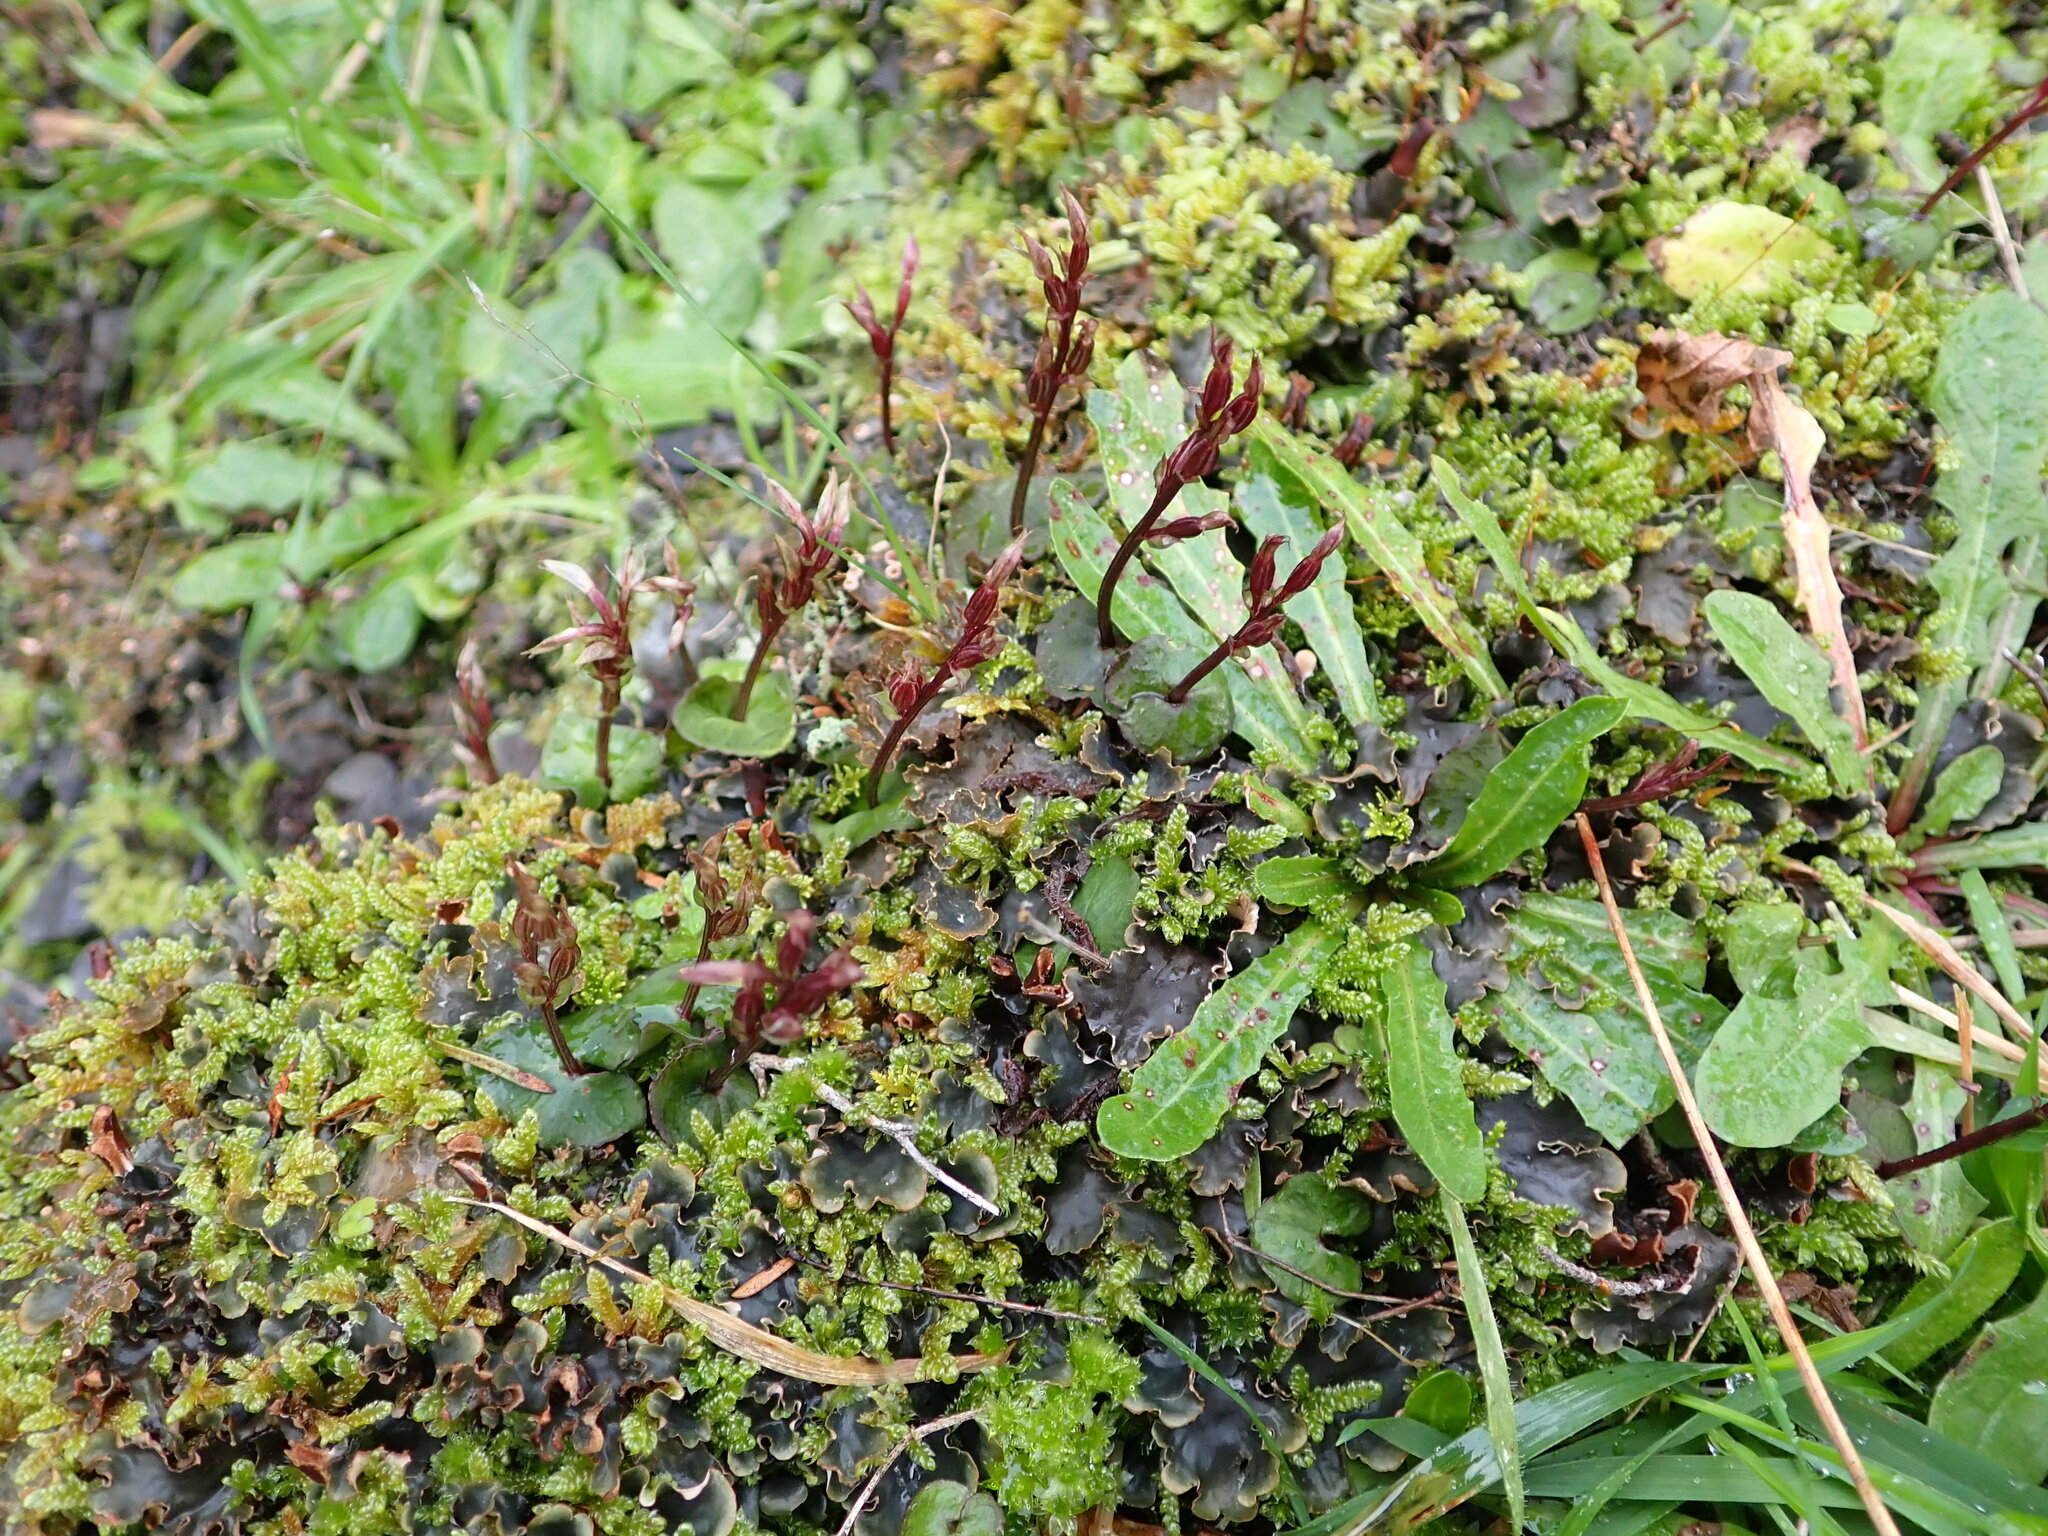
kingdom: Plantae
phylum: Tracheophyta
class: Liliopsida
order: Asparagales
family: Orchidaceae
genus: Acianthus
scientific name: Acianthus sinclairii
